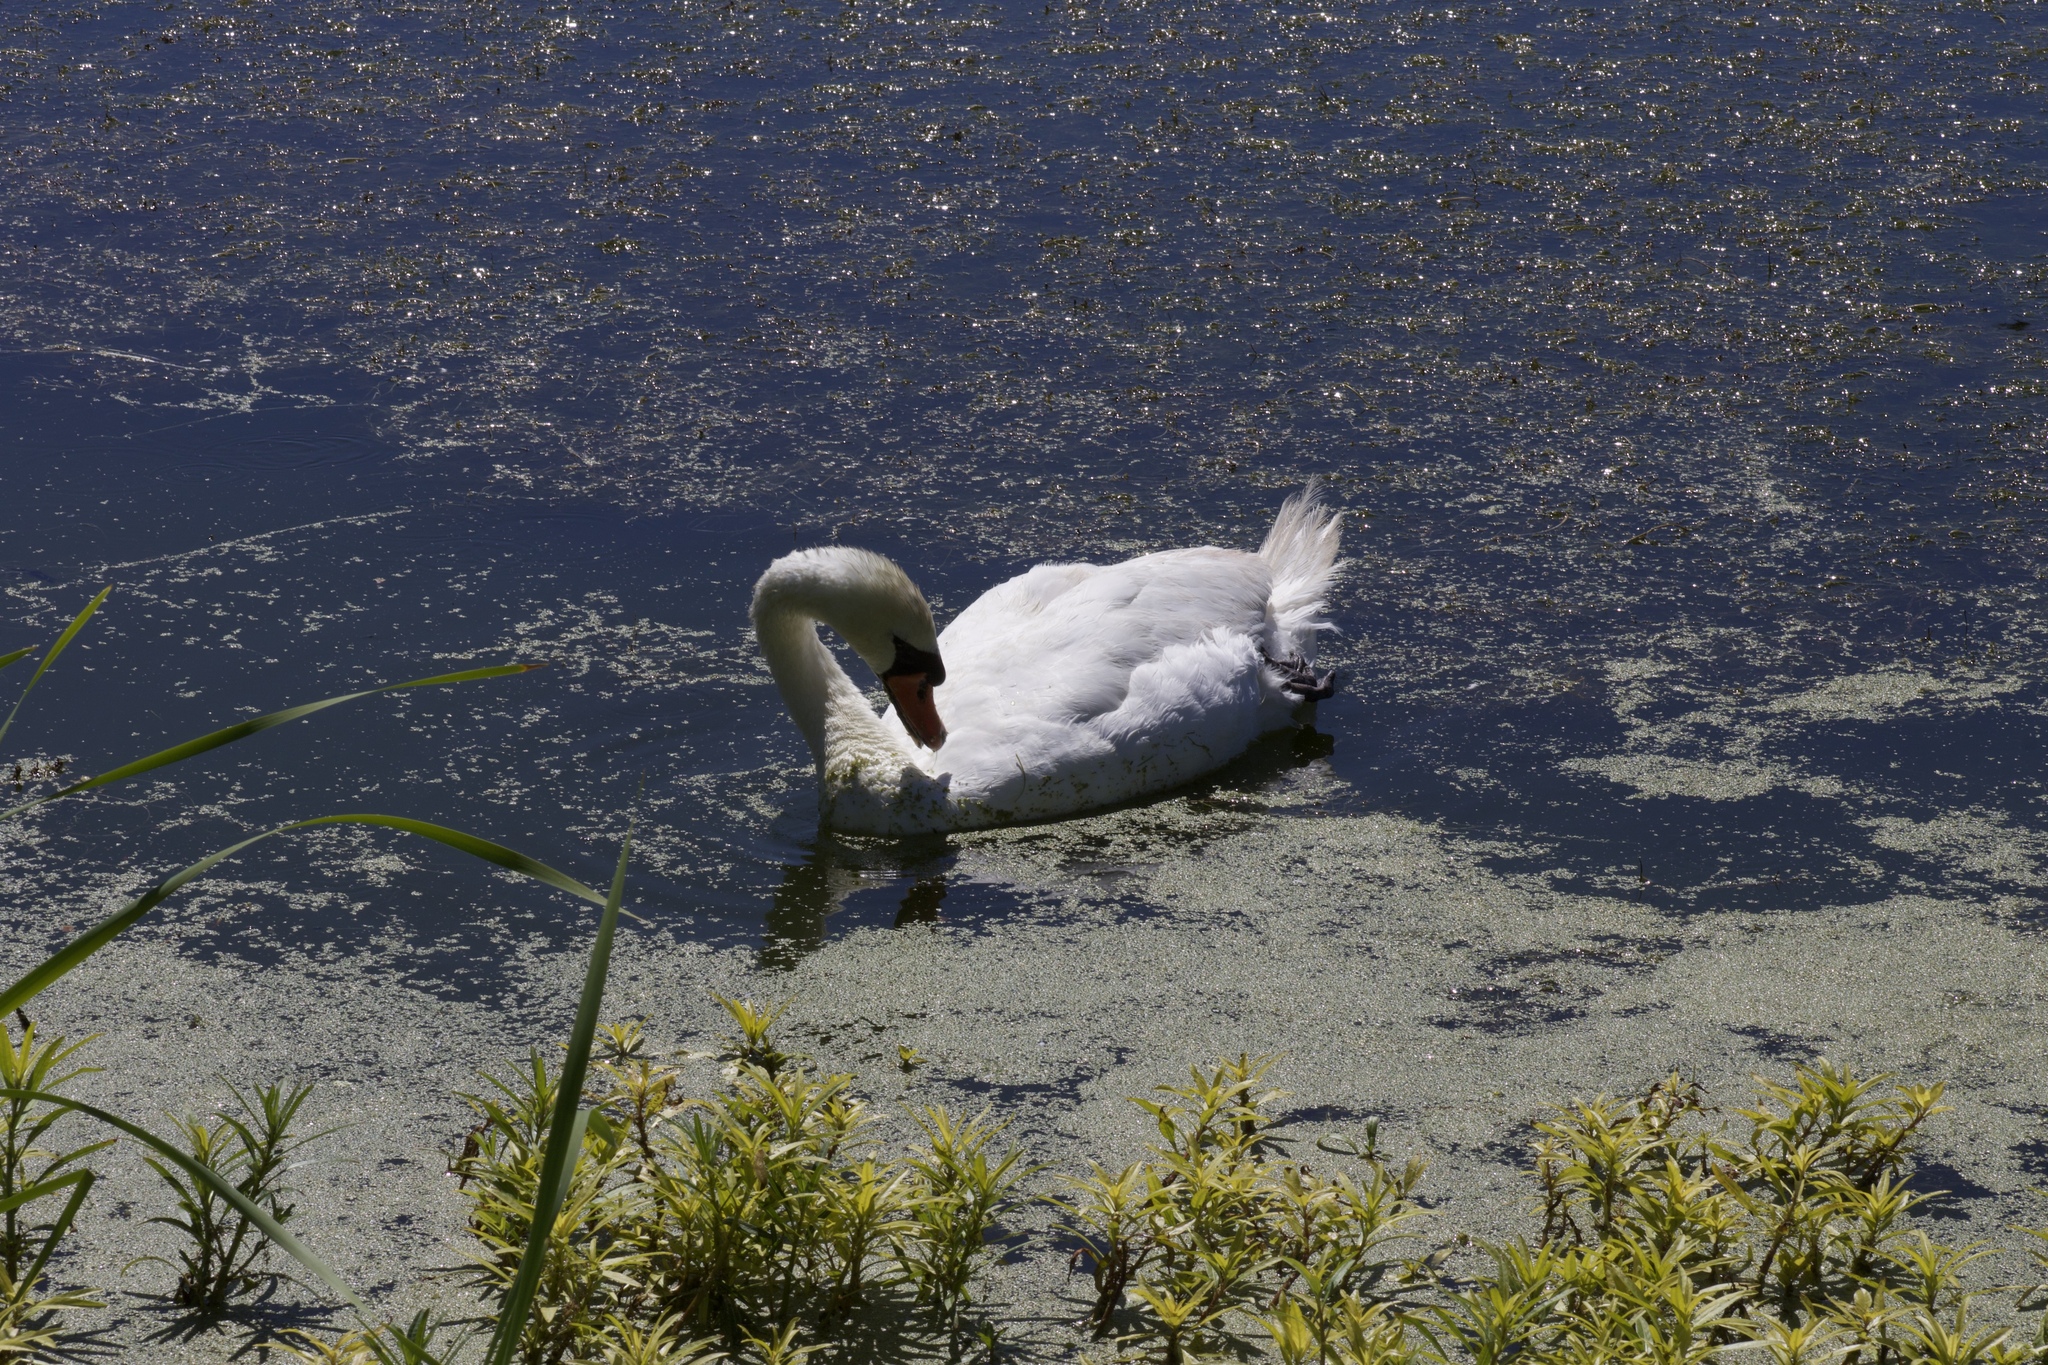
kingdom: Animalia
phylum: Chordata
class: Aves
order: Anseriformes
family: Anatidae
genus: Cygnus
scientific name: Cygnus olor
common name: Mute swan
